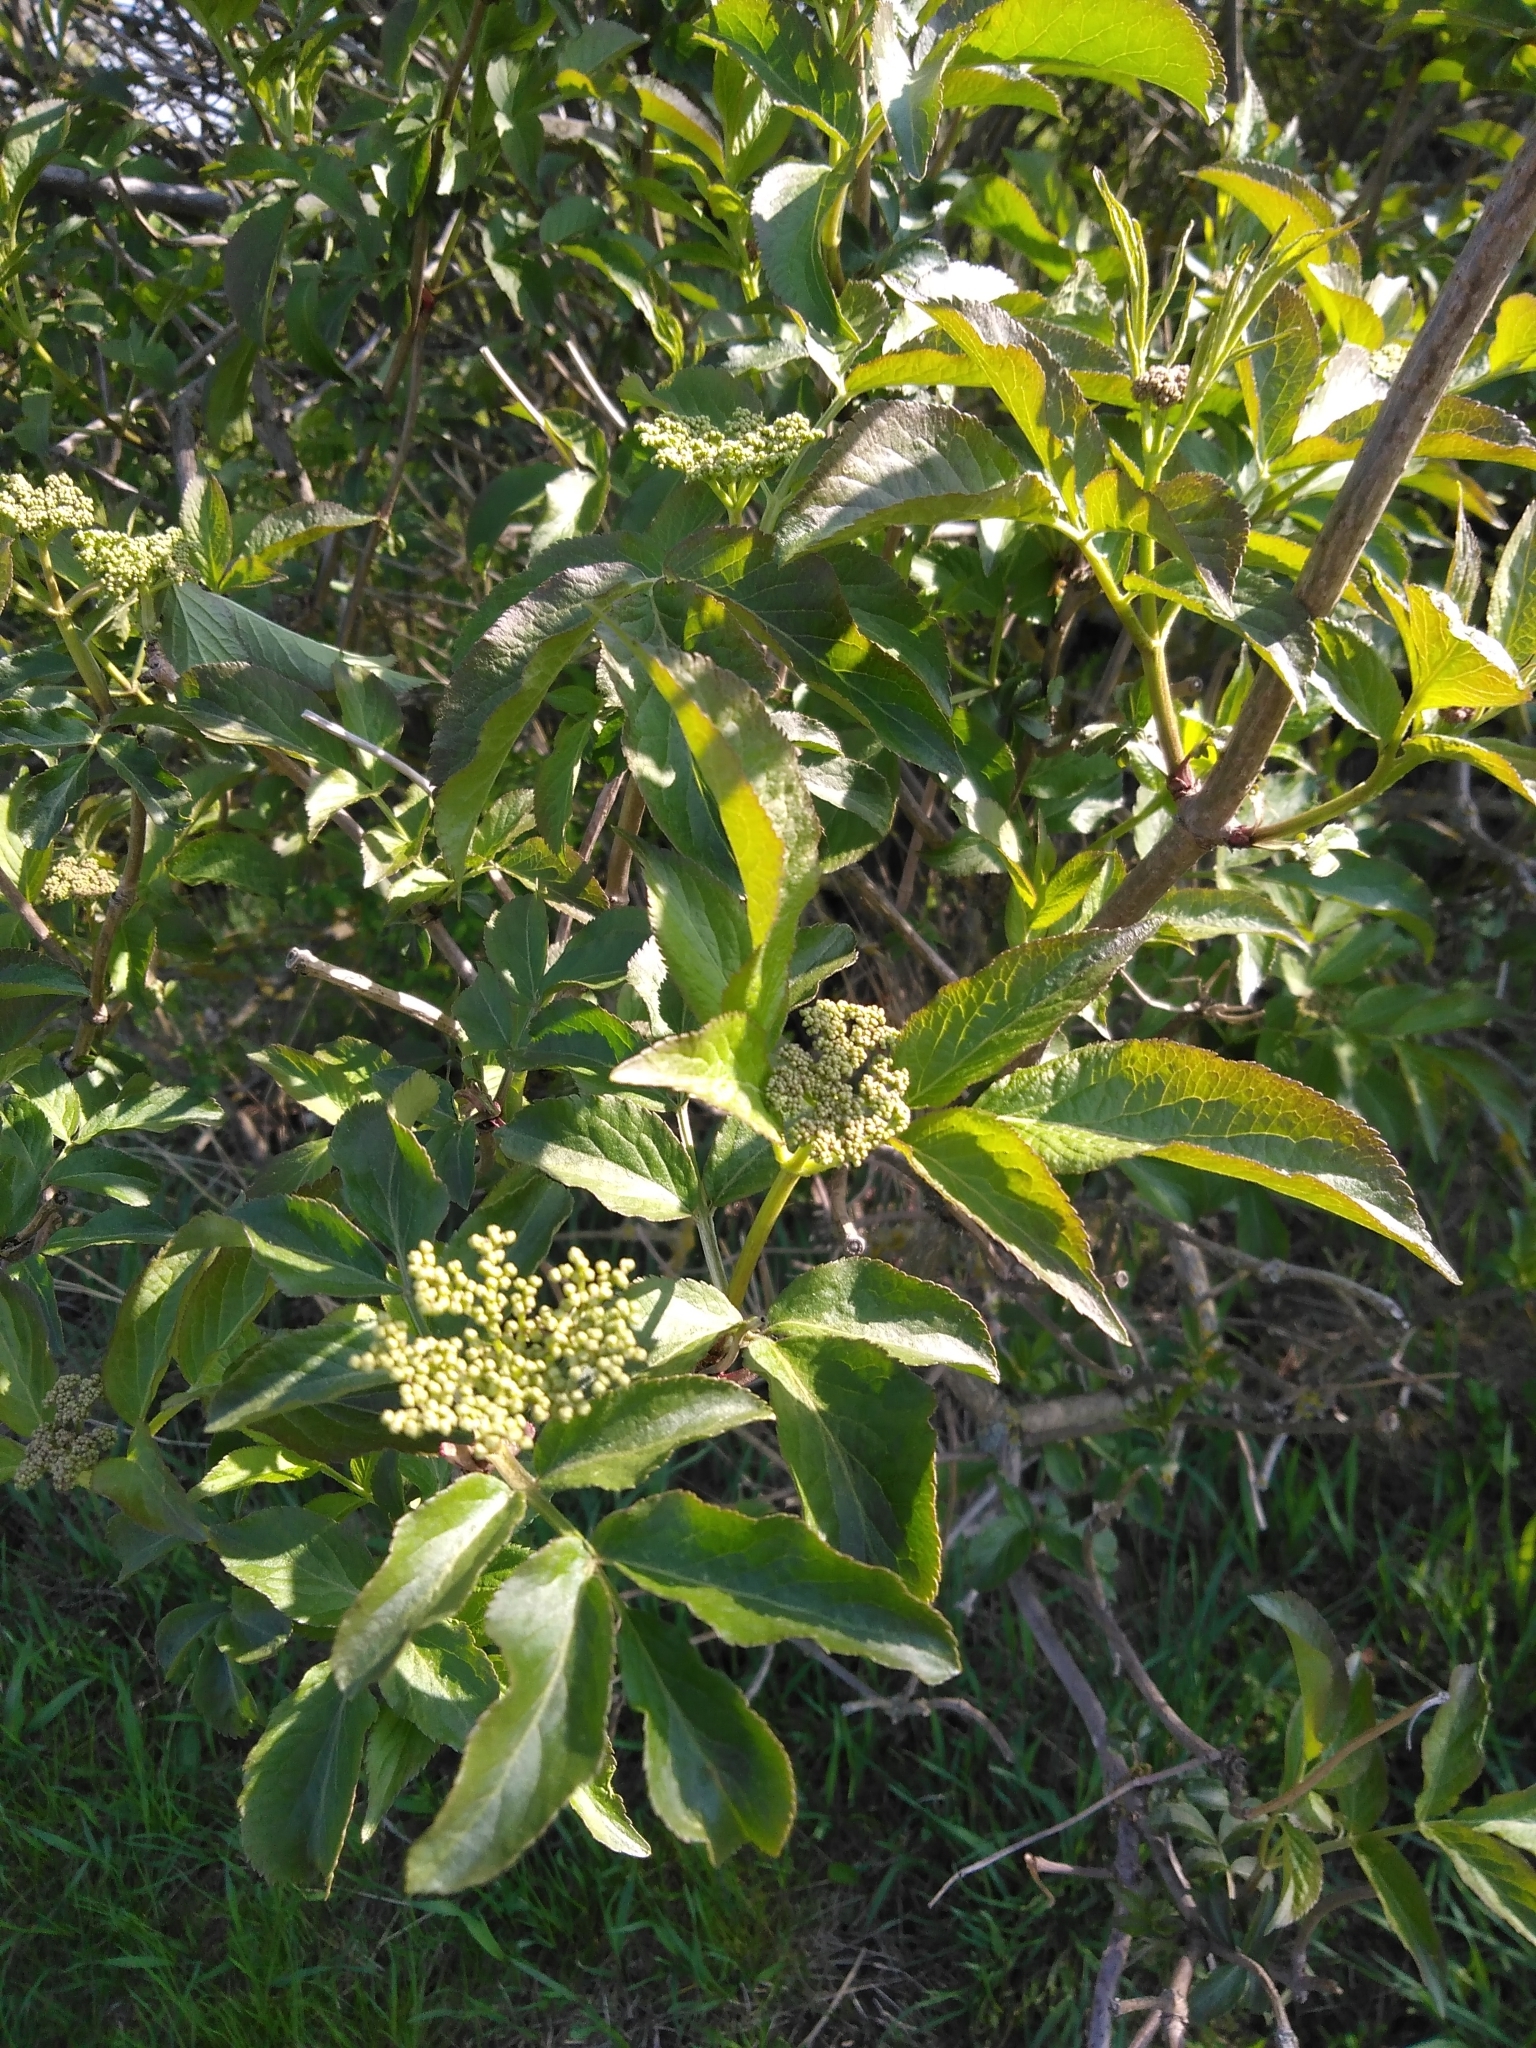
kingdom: Plantae
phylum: Tracheophyta
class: Magnoliopsida
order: Dipsacales
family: Viburnaceae
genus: Sambucus
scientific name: Sambucus nigra
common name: Elder
